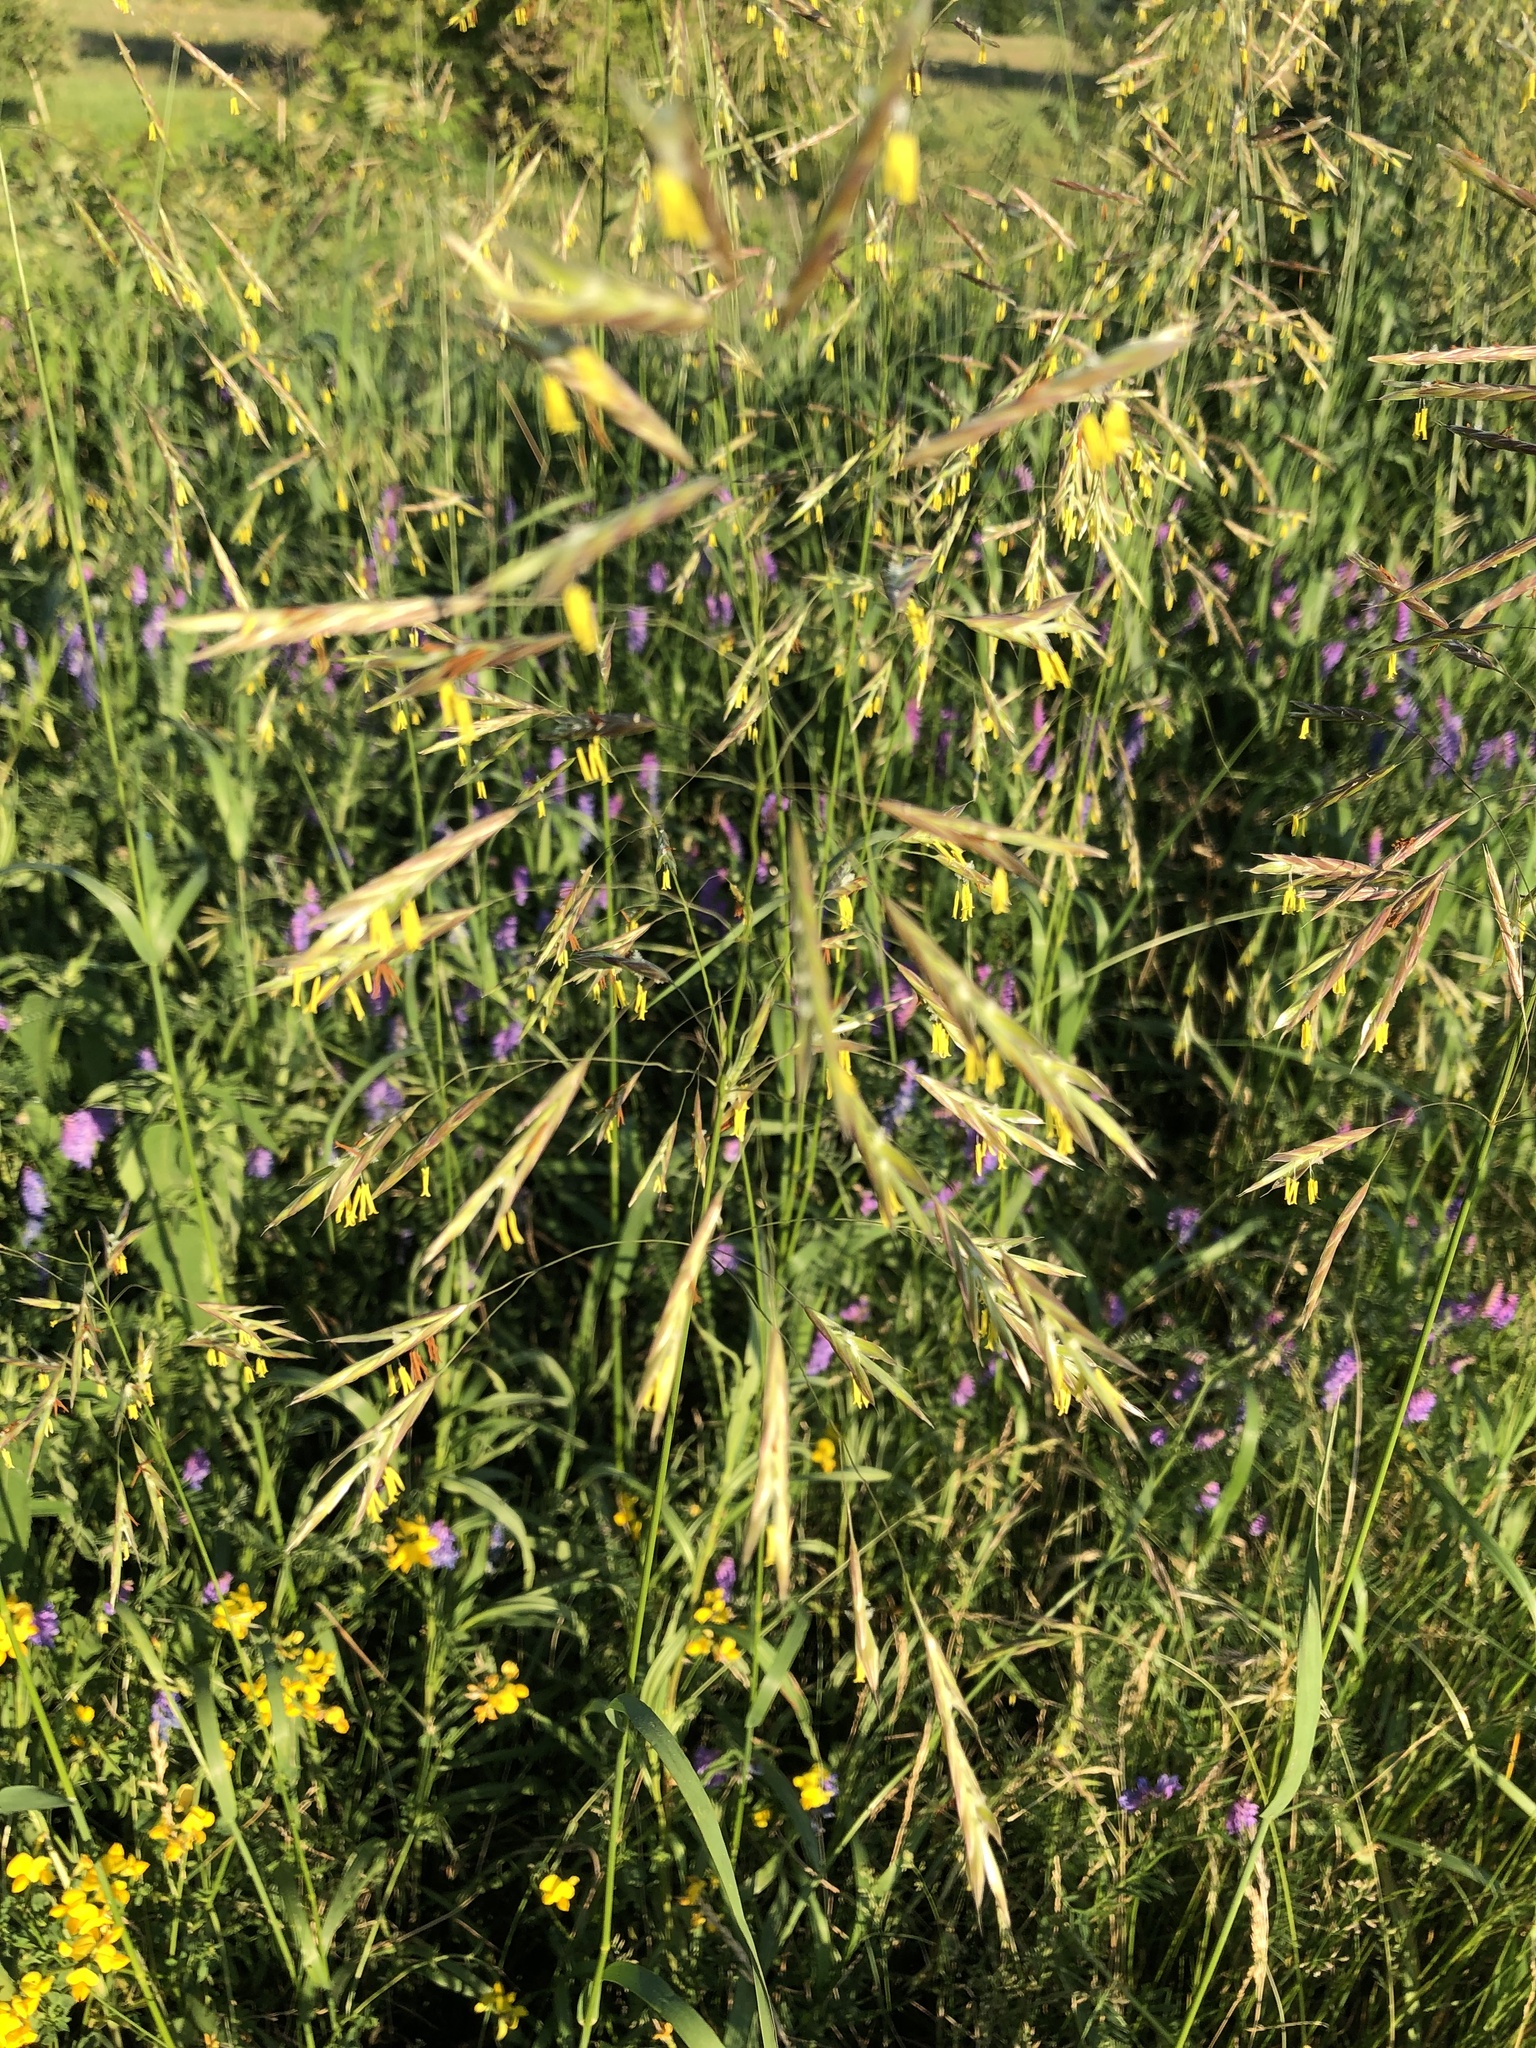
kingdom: Plantae
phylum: Tracheophyta
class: Liliopsida
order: Poales
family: Poaceae
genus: Bromus
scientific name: Bromus inermis
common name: Smooth brome
